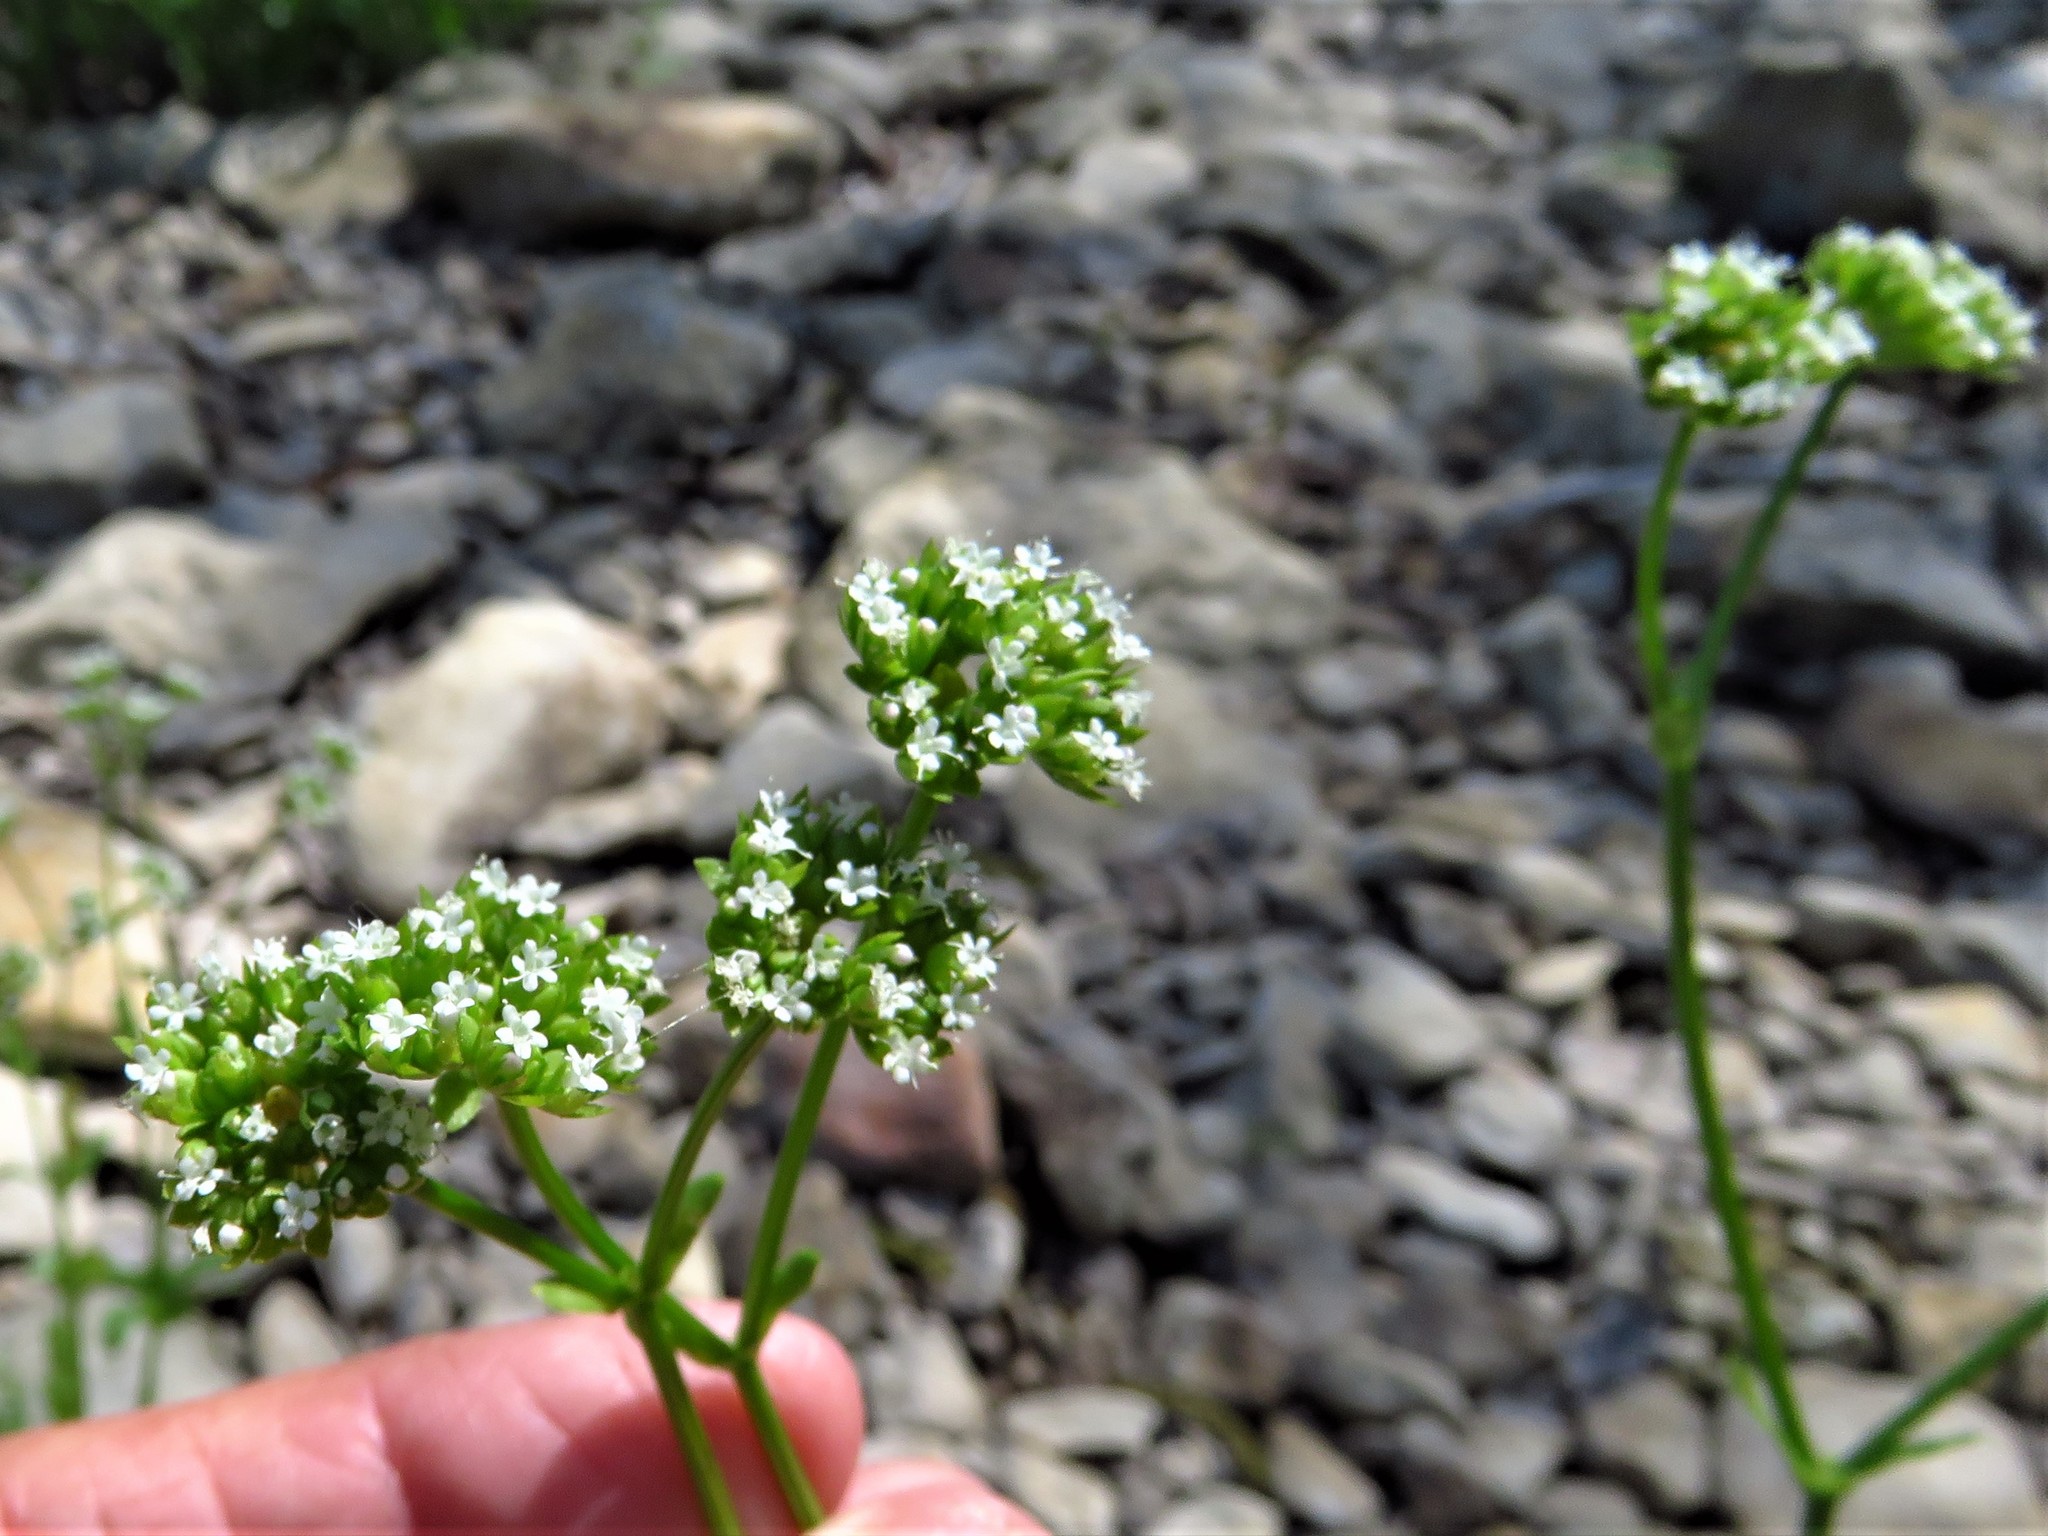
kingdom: Plantae
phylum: Tracheophyta
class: Magnoliopsida
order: Dipsacales
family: Caprifoliaceae
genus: Valerianella
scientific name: Valerianella radiata
